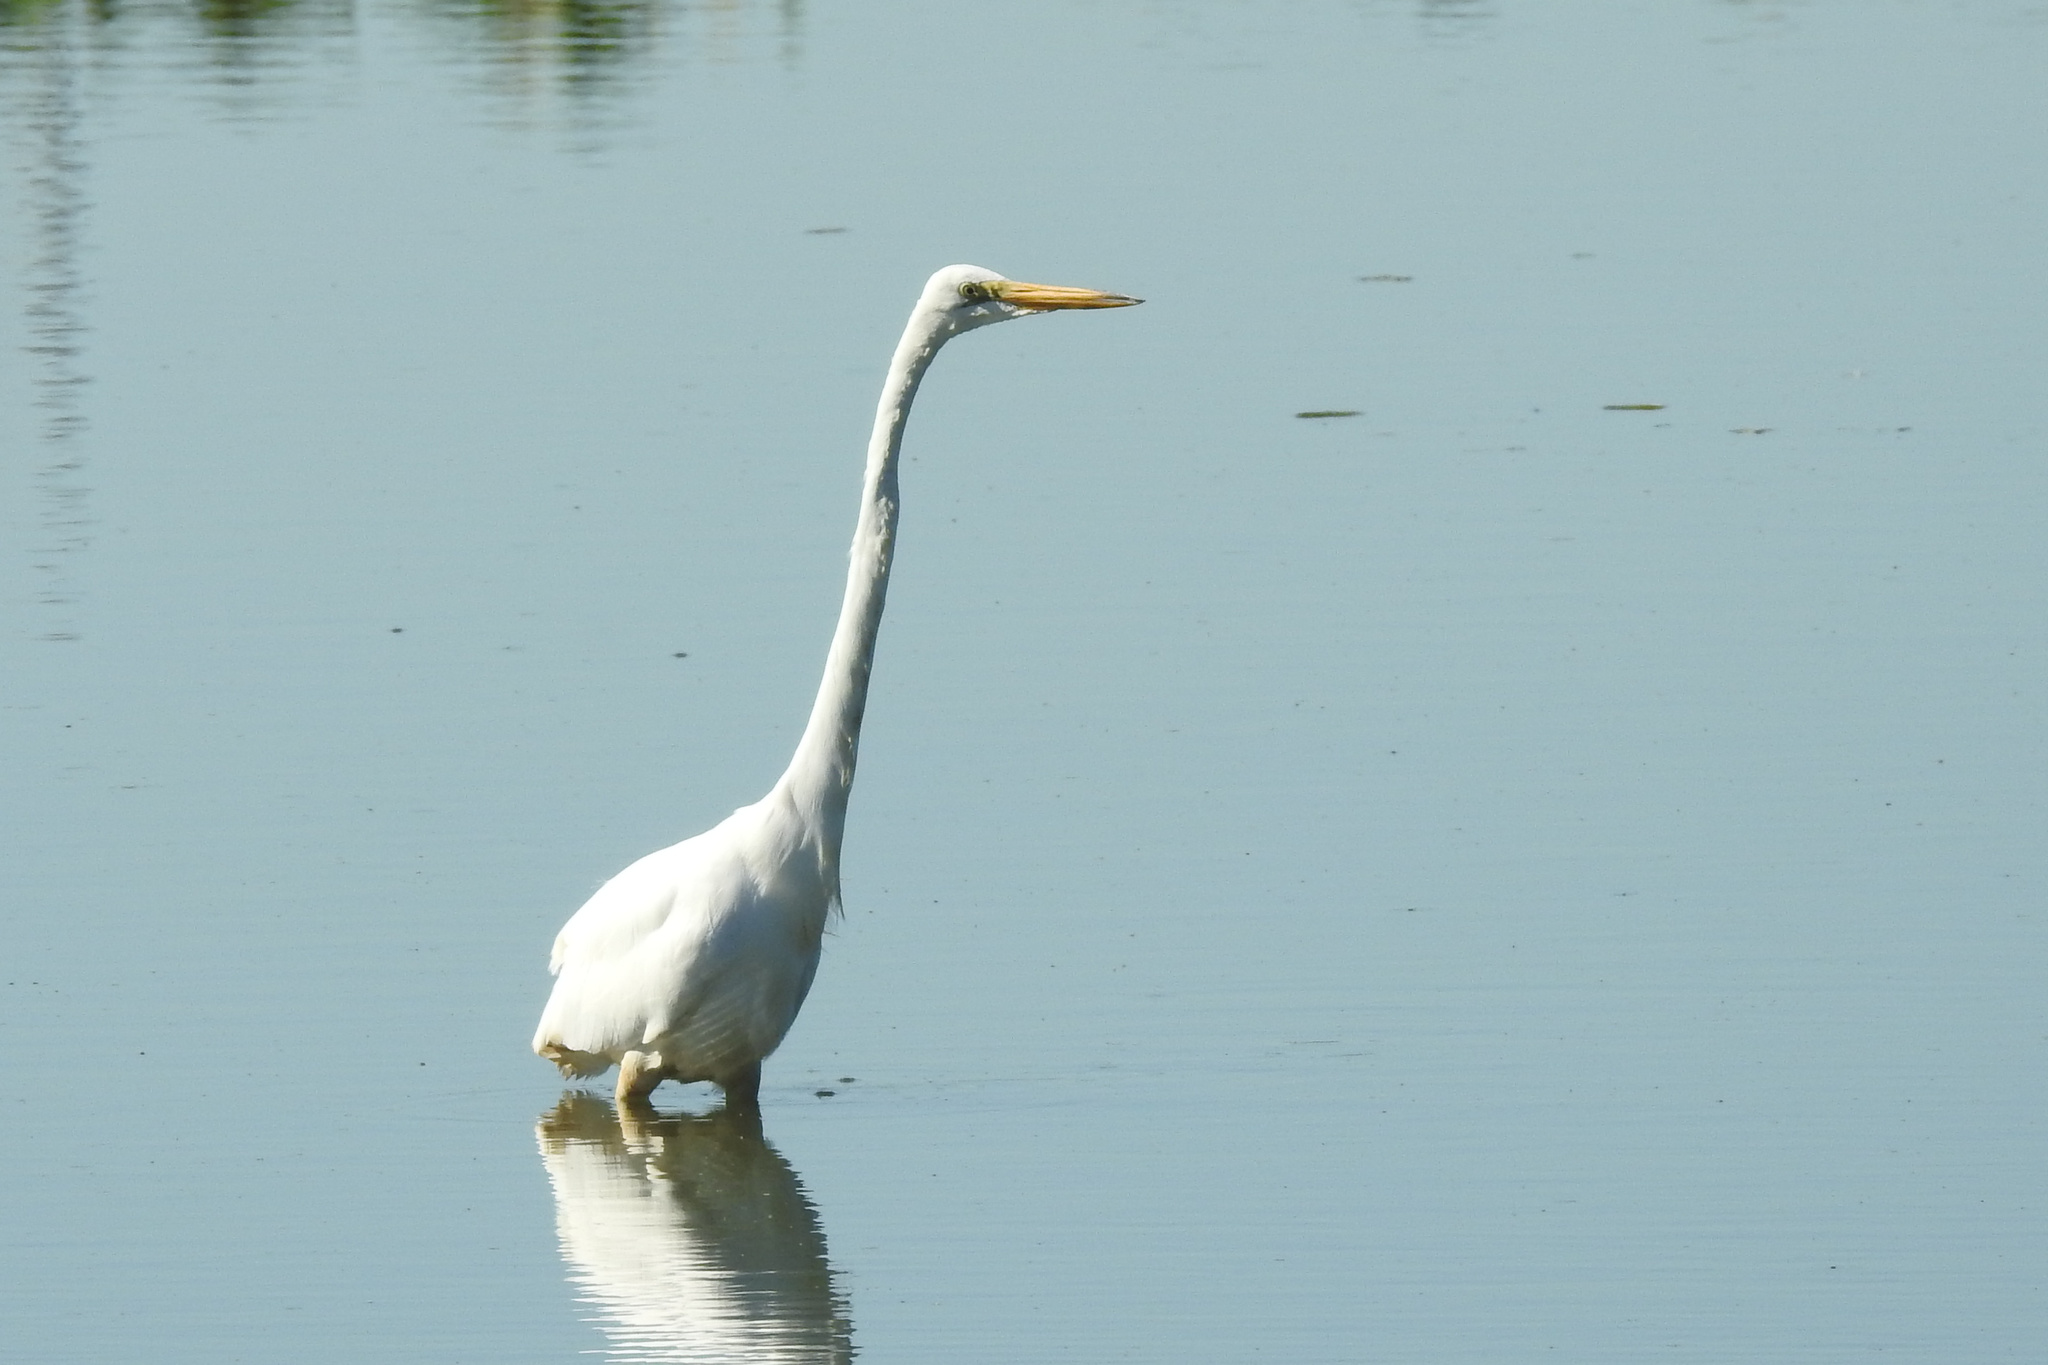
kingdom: Animalia
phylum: Chordata
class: Aves
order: Pelecaniformes
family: Ardeidae
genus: Ardea
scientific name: Ardea alba
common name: Great egret
